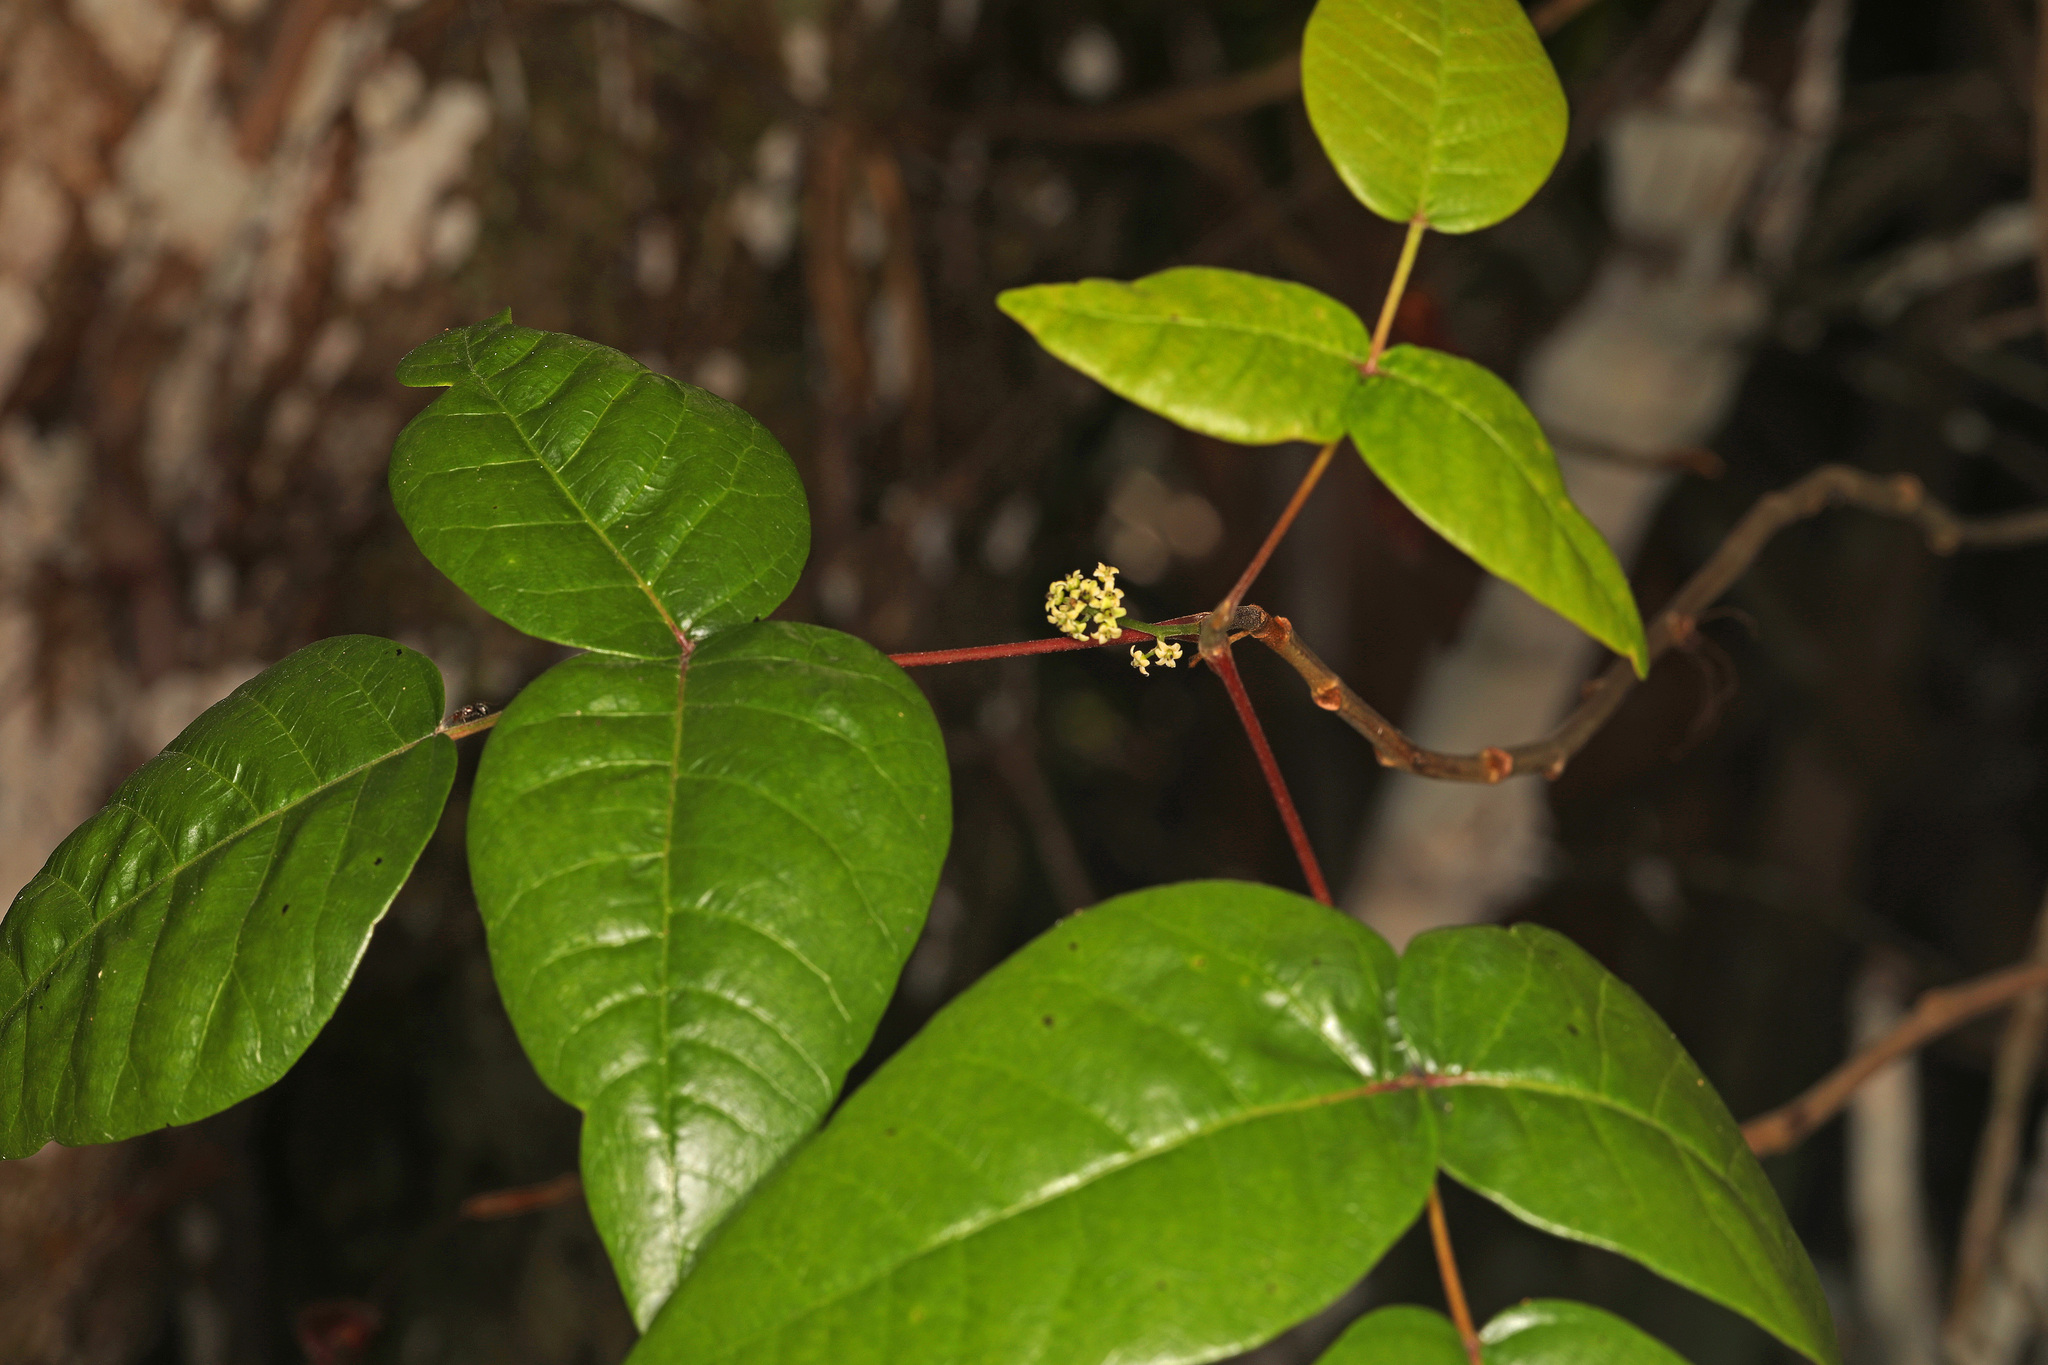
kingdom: Plantae
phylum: Tracheophyta
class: Magnoliopsida
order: Sapindales
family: Anacardiaceae
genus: Toxicodendron
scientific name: Toxicodendron radicans
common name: Poison ivy
